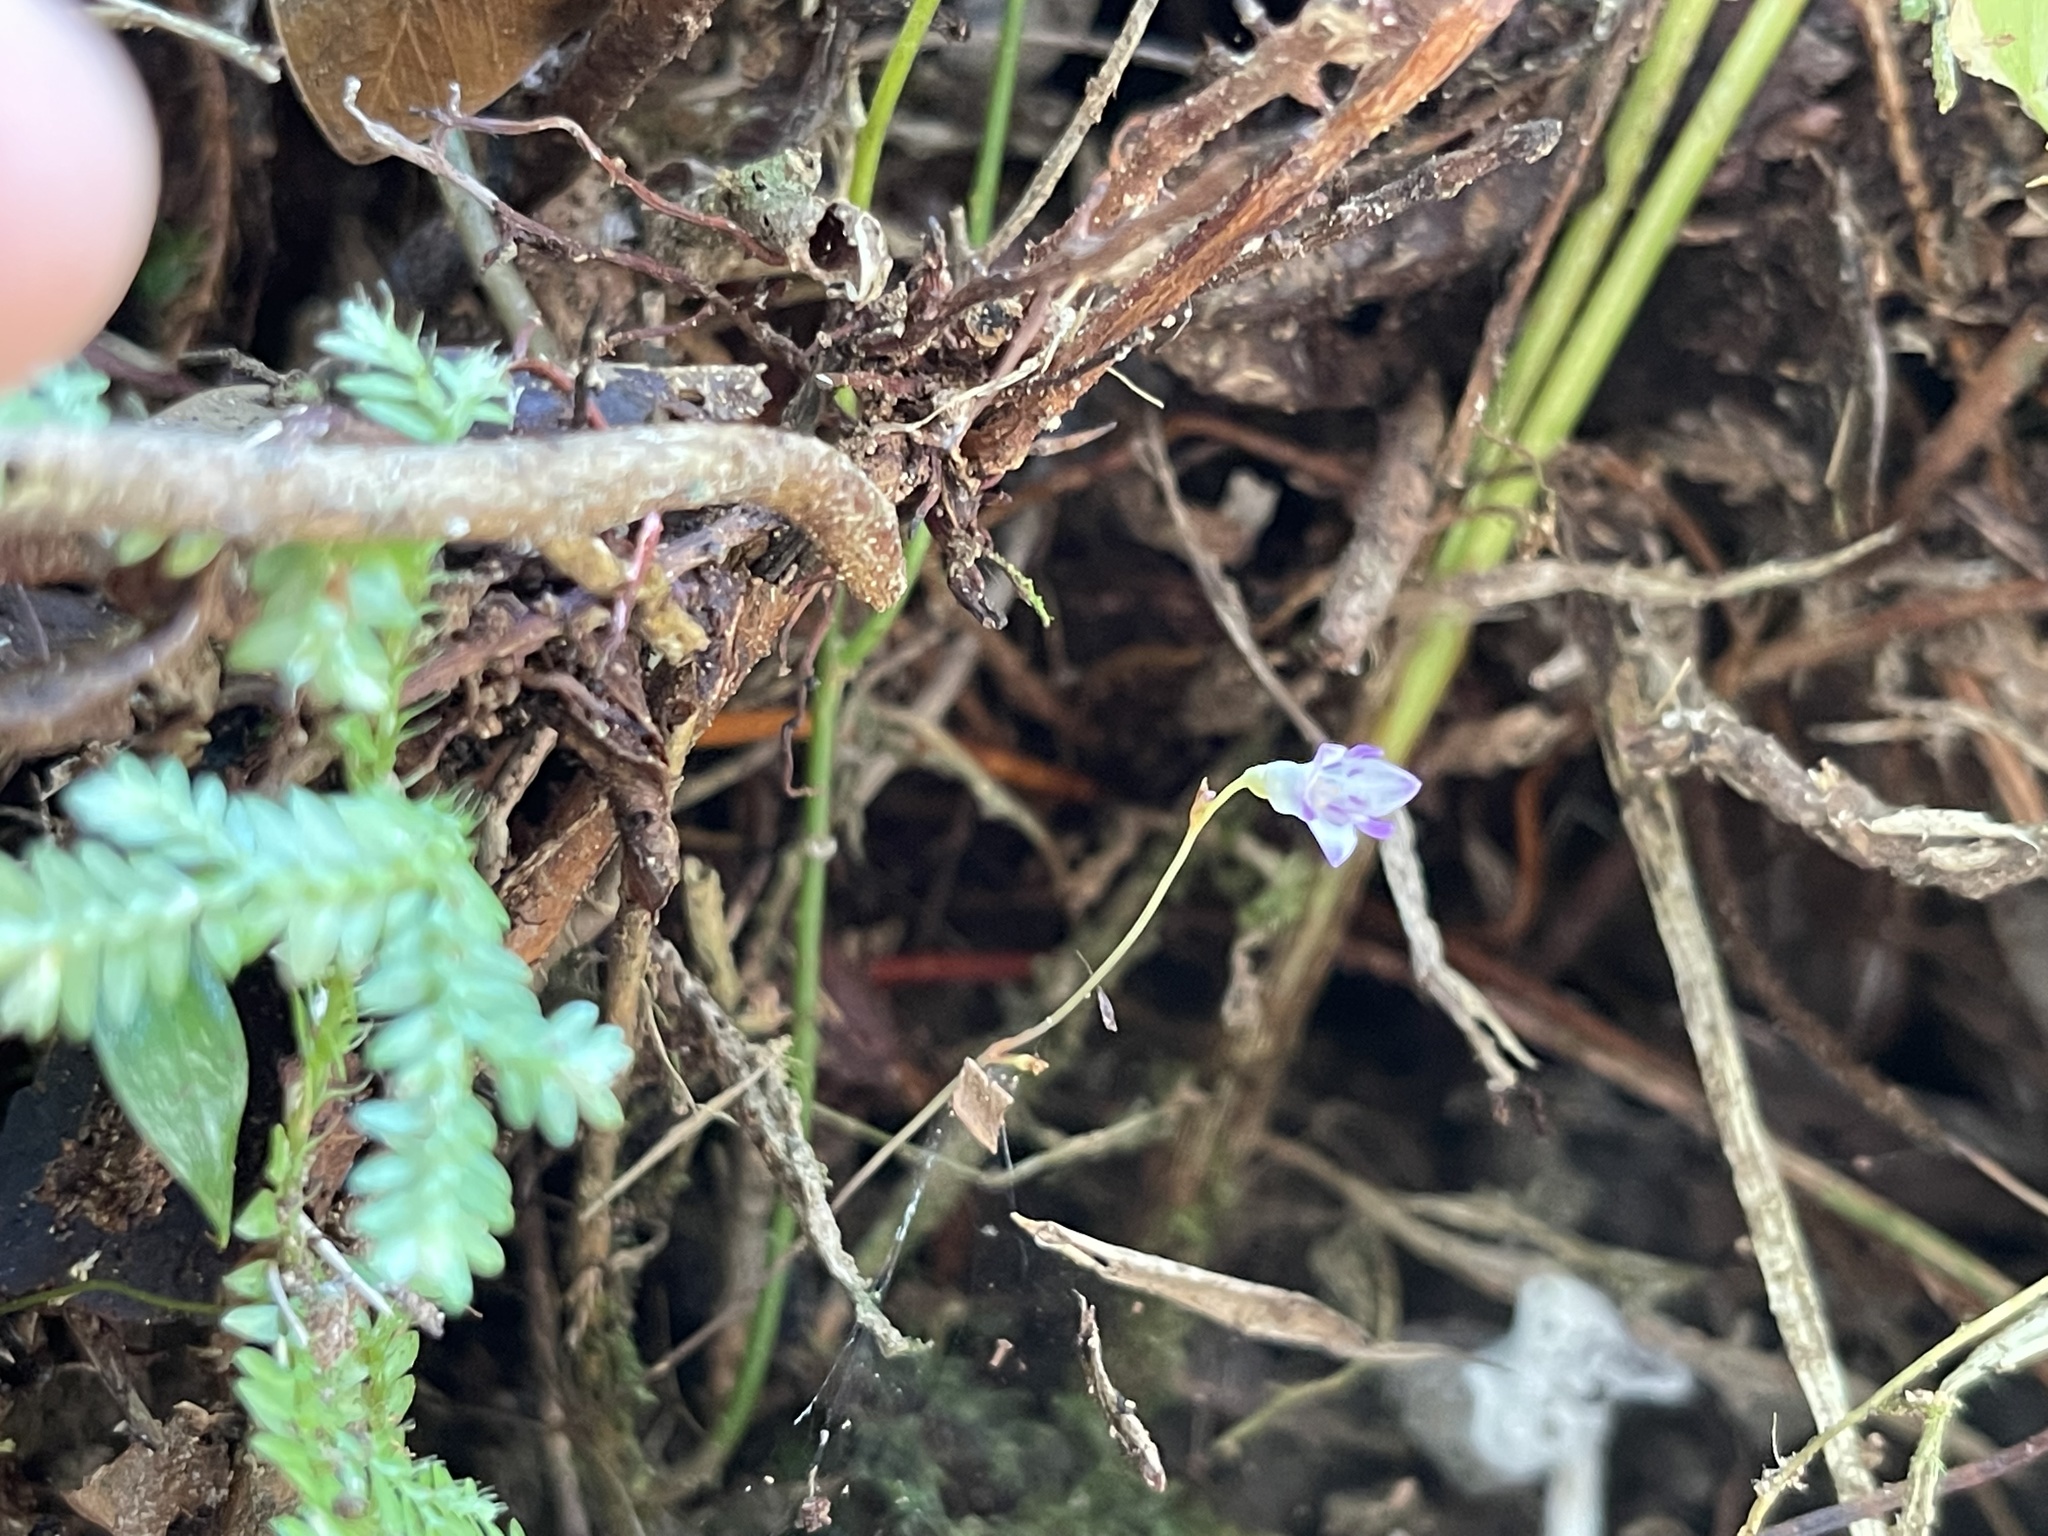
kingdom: Plantae
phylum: Tracheophyta
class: Liliopsida
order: Dioscoreales
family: Burmanniaceae
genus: Apteria
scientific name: Apteria aphylla
